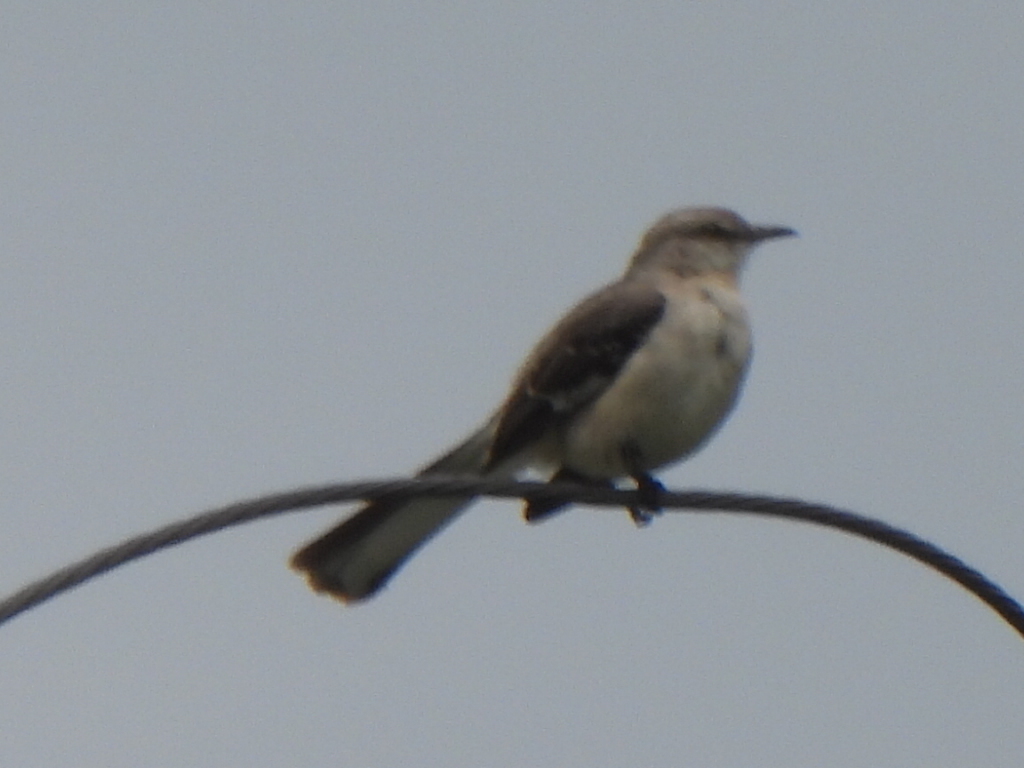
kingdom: Animalia
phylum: Chordata
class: Aves
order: Passeriformes
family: Mimidae
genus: Mimus
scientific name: Mimus polyglottos
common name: Northern mockingbird
